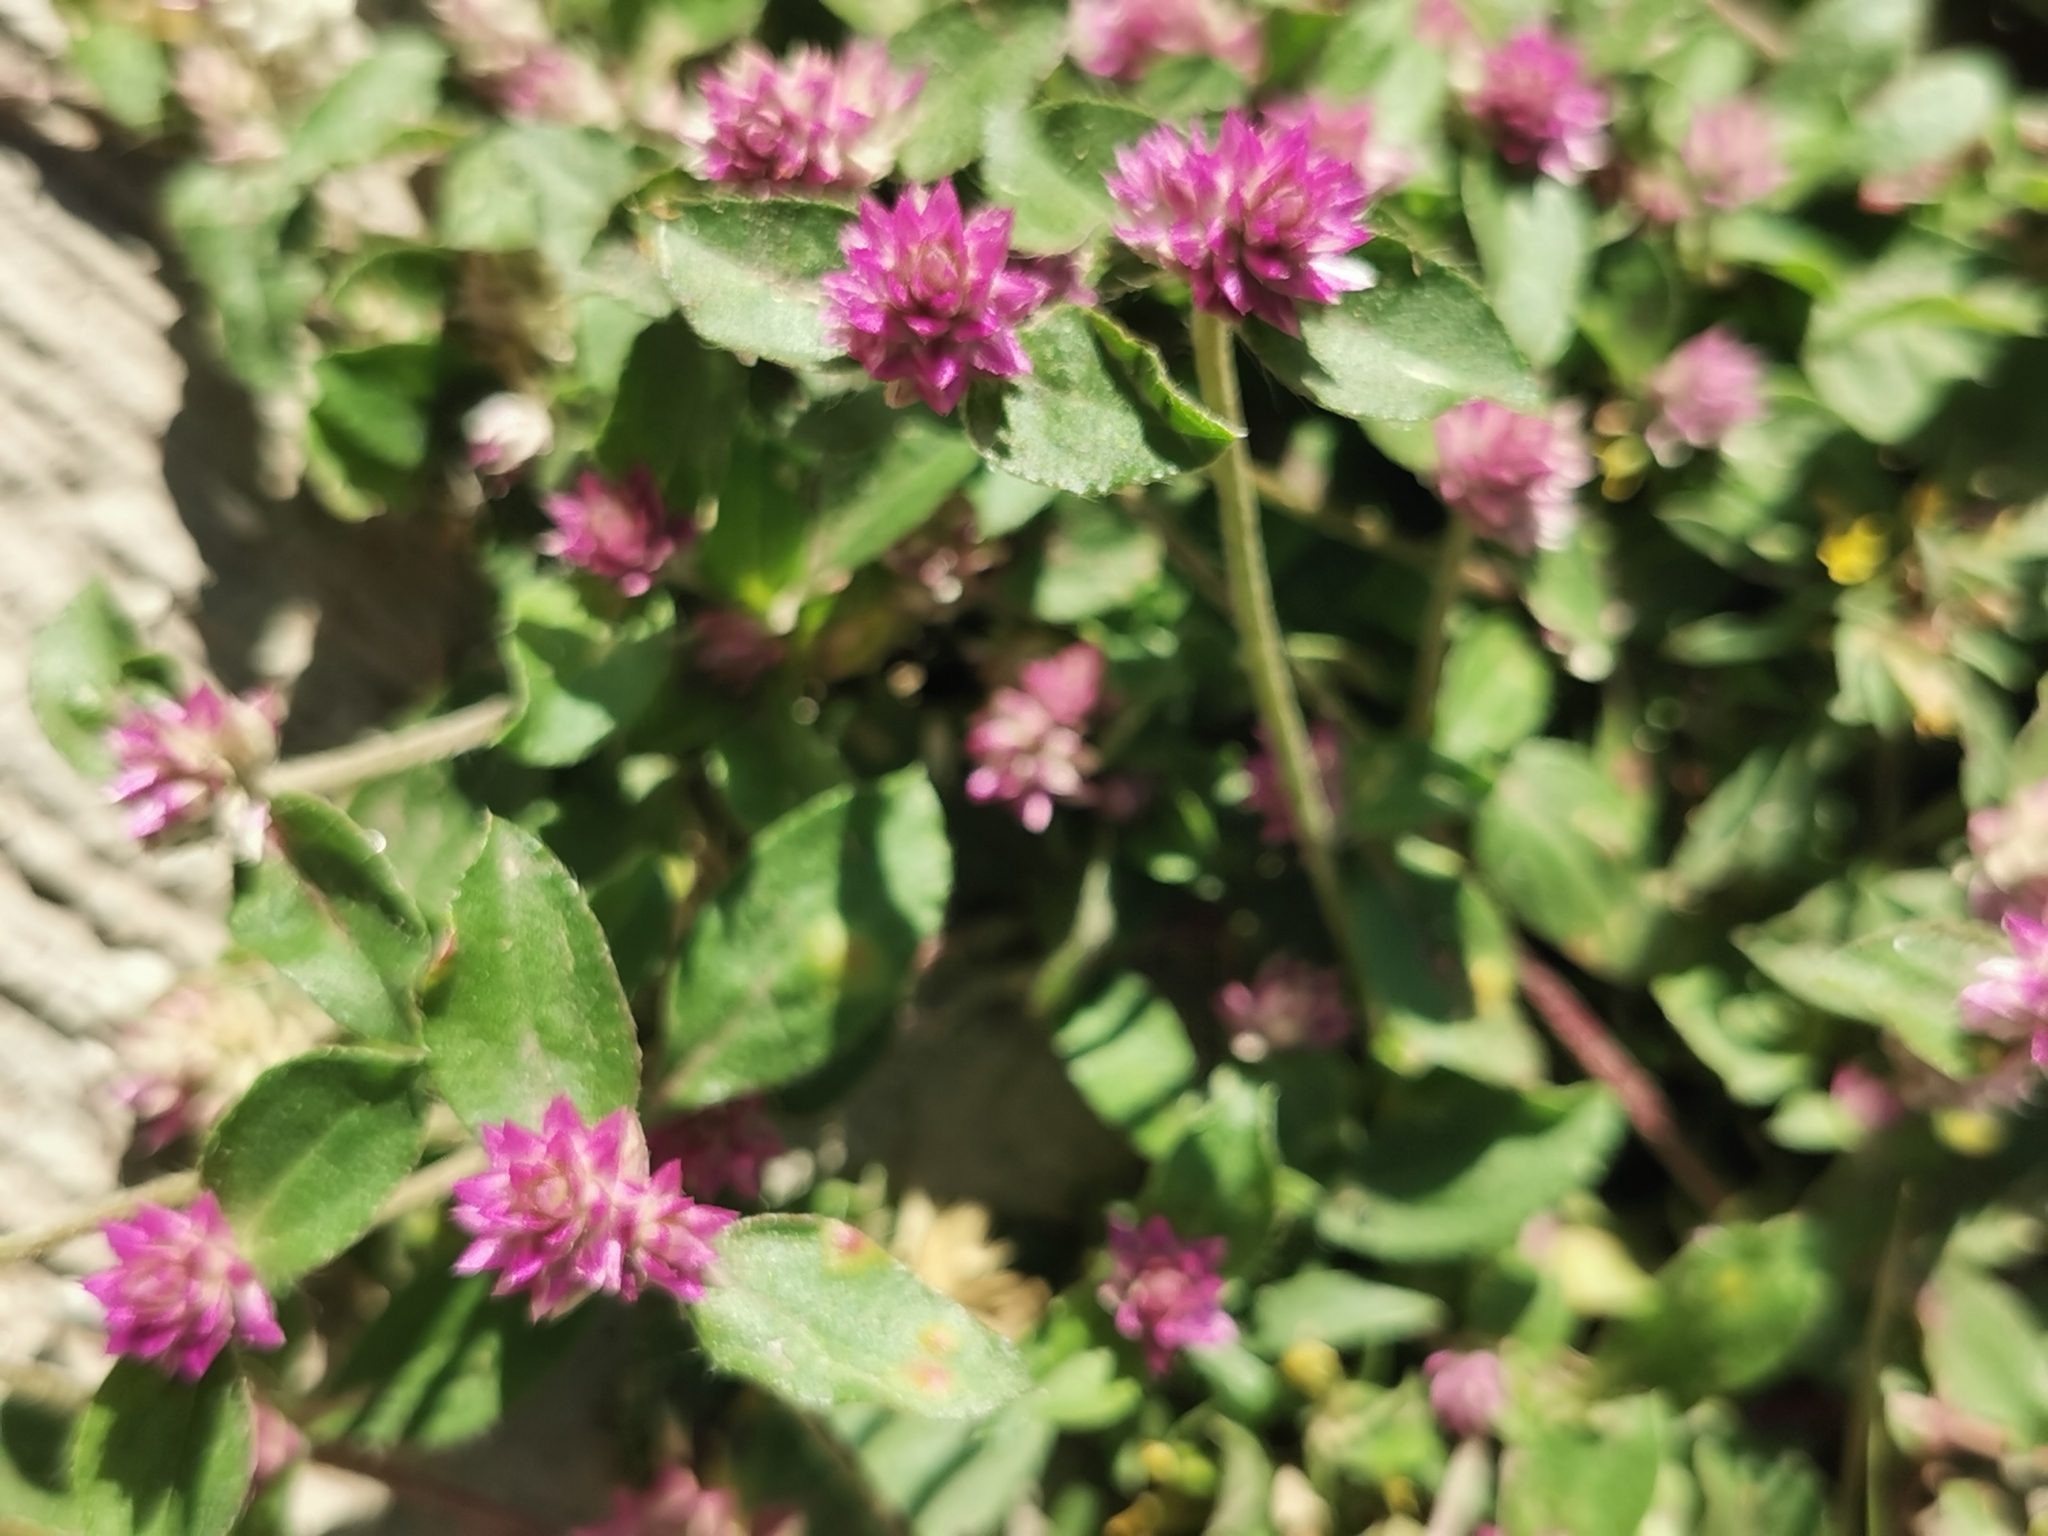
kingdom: Plantae
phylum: Tracheophyta
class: Magnoliopsida
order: Caryophyllales
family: Amaranthaceae
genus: Gomphrena
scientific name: Gomphrena serrata
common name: Arrasa con todo
